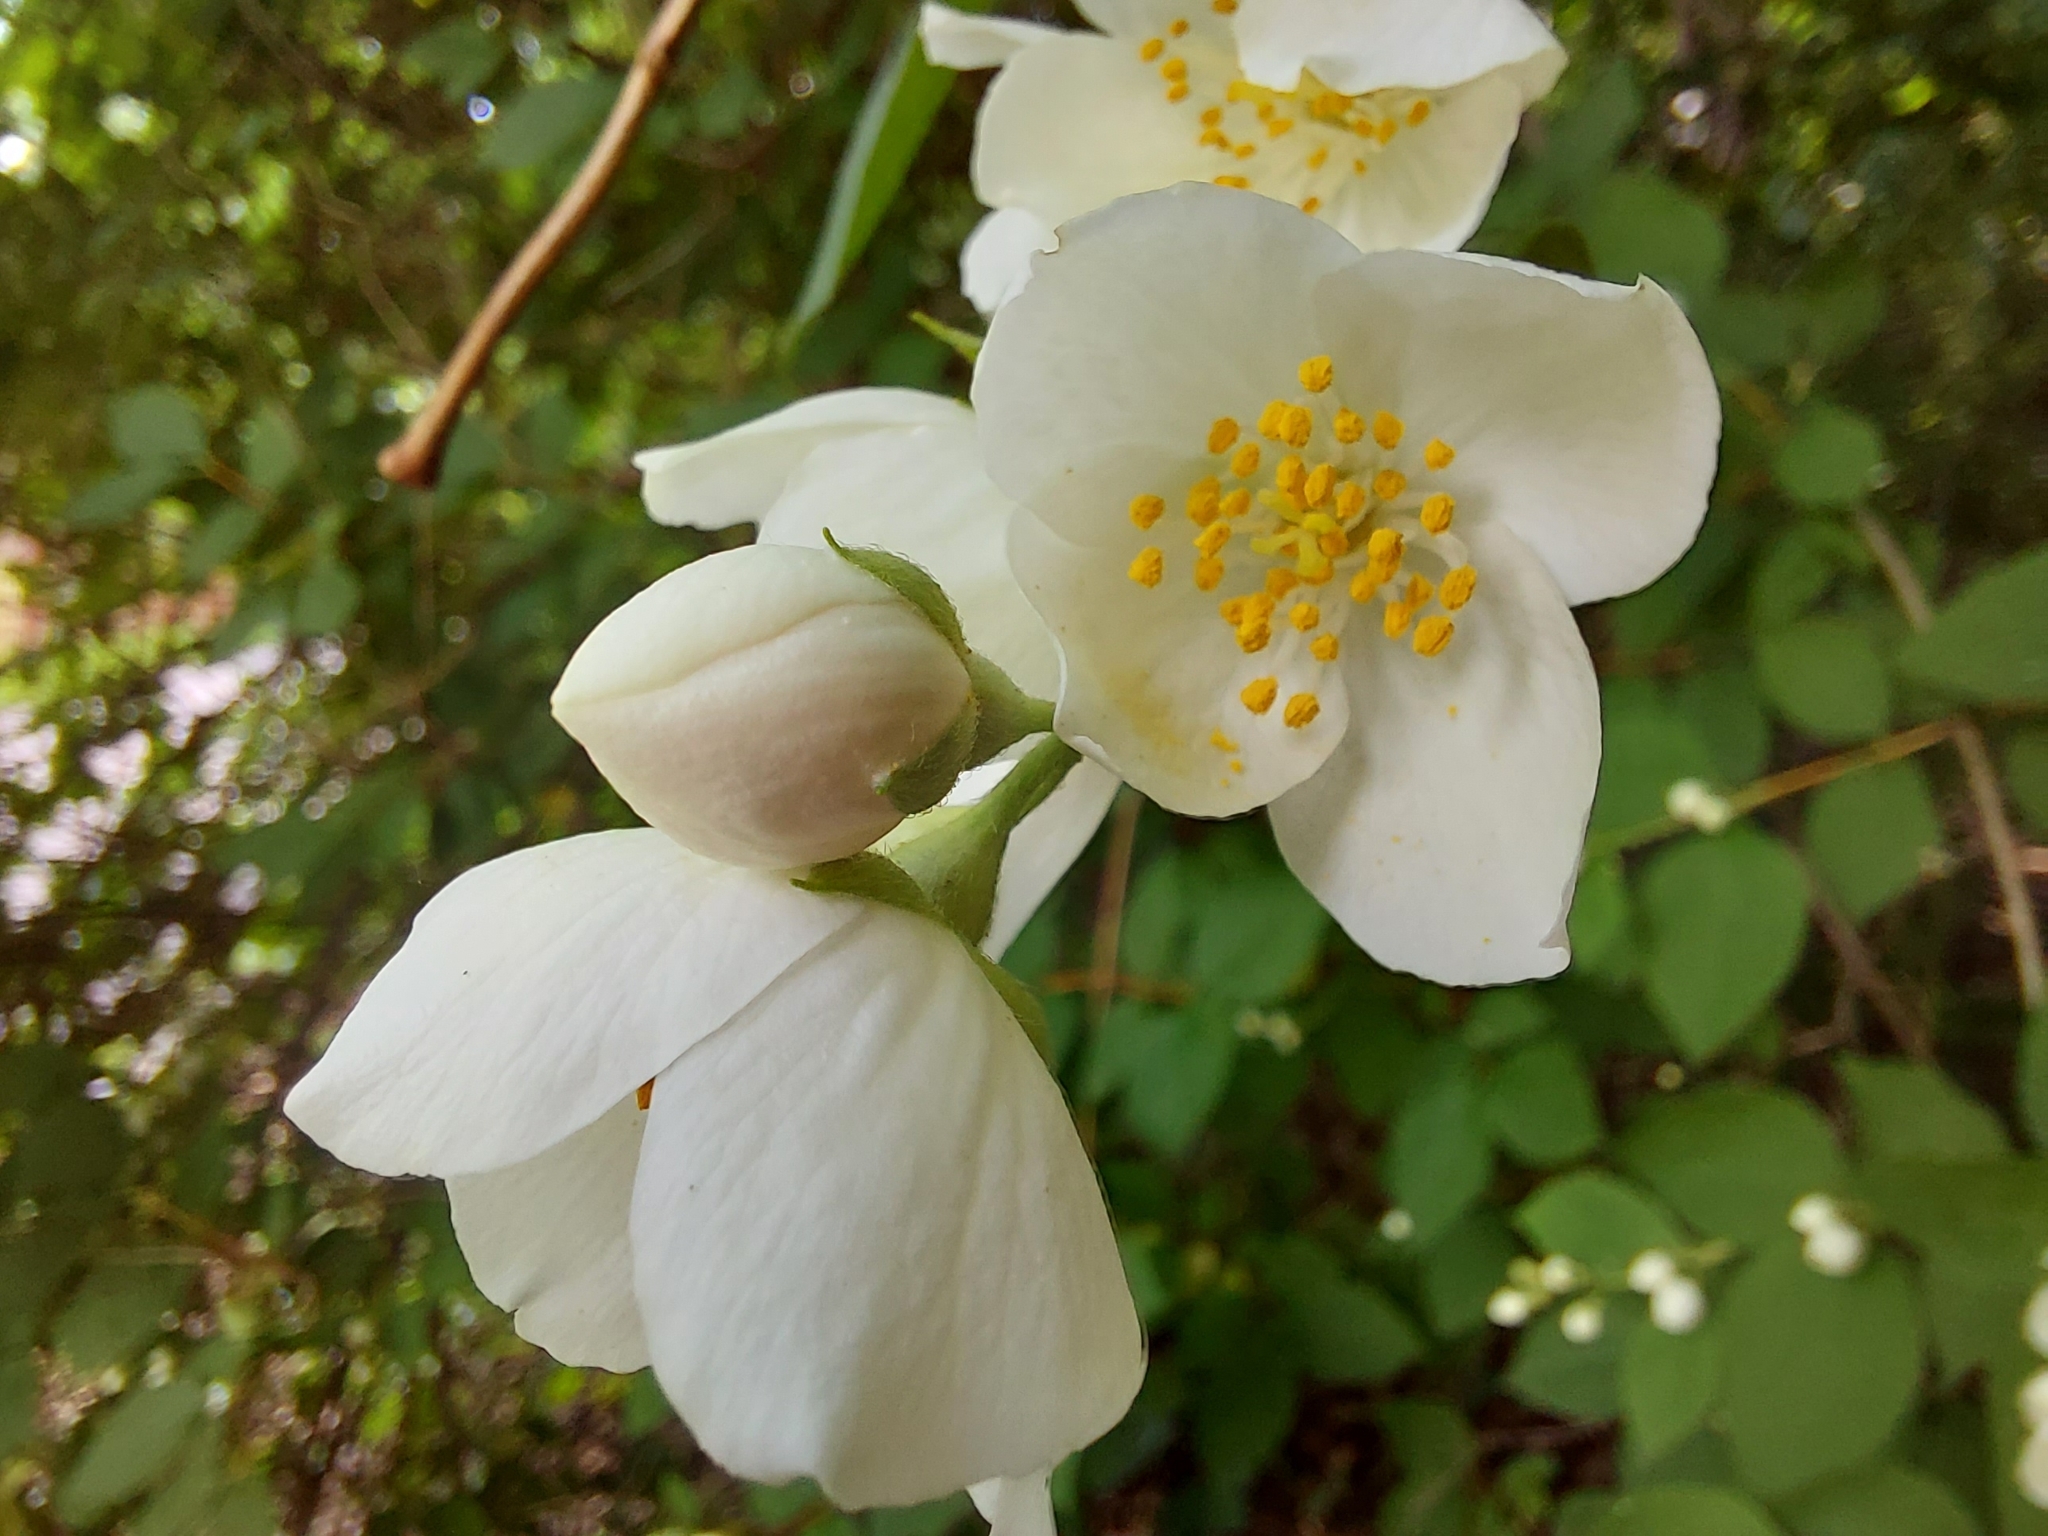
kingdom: Plantae
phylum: Tracheophyta
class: Magnoliopsida
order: Cornales
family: Hydrangeaceae
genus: Philadelphus
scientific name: Philadelphus coronarius
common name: Mock orange
